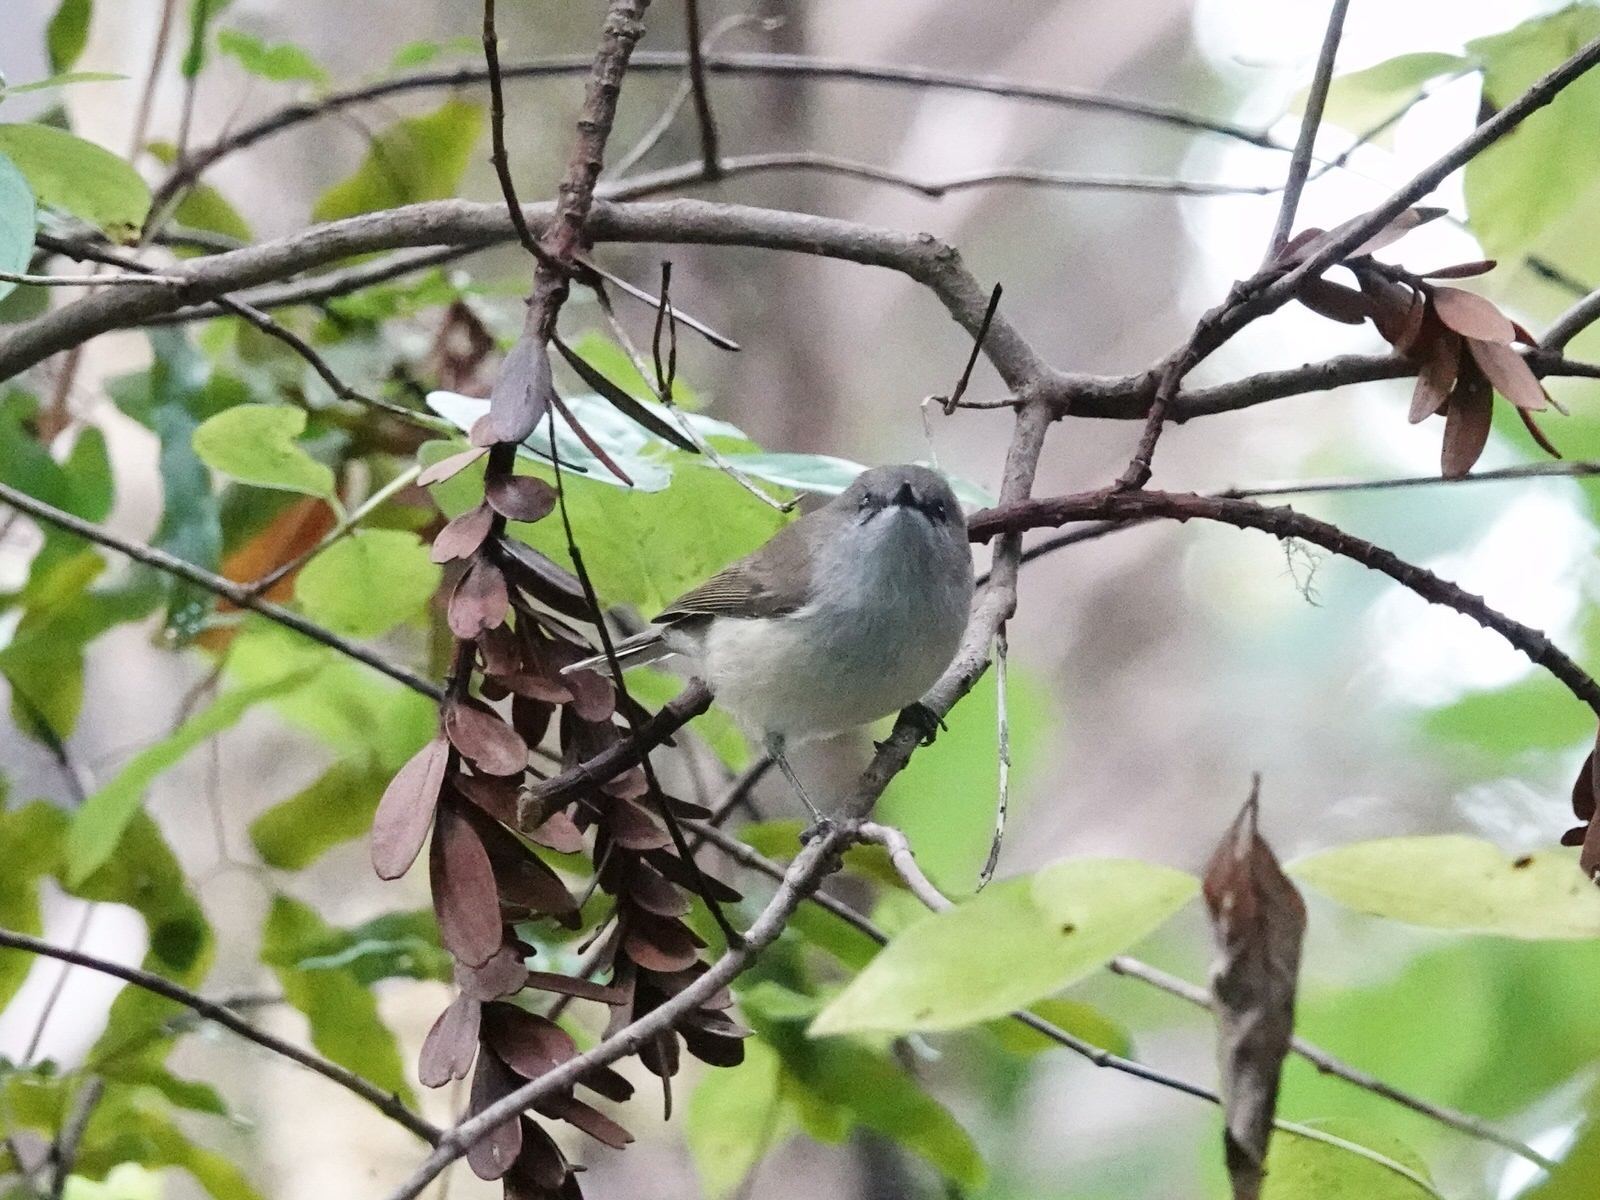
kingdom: Animalia
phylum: Chordata
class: Aves
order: Passeriformes
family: Acanthizidae
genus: Gerygone
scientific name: Gerygone igata
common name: Grey gerygone
